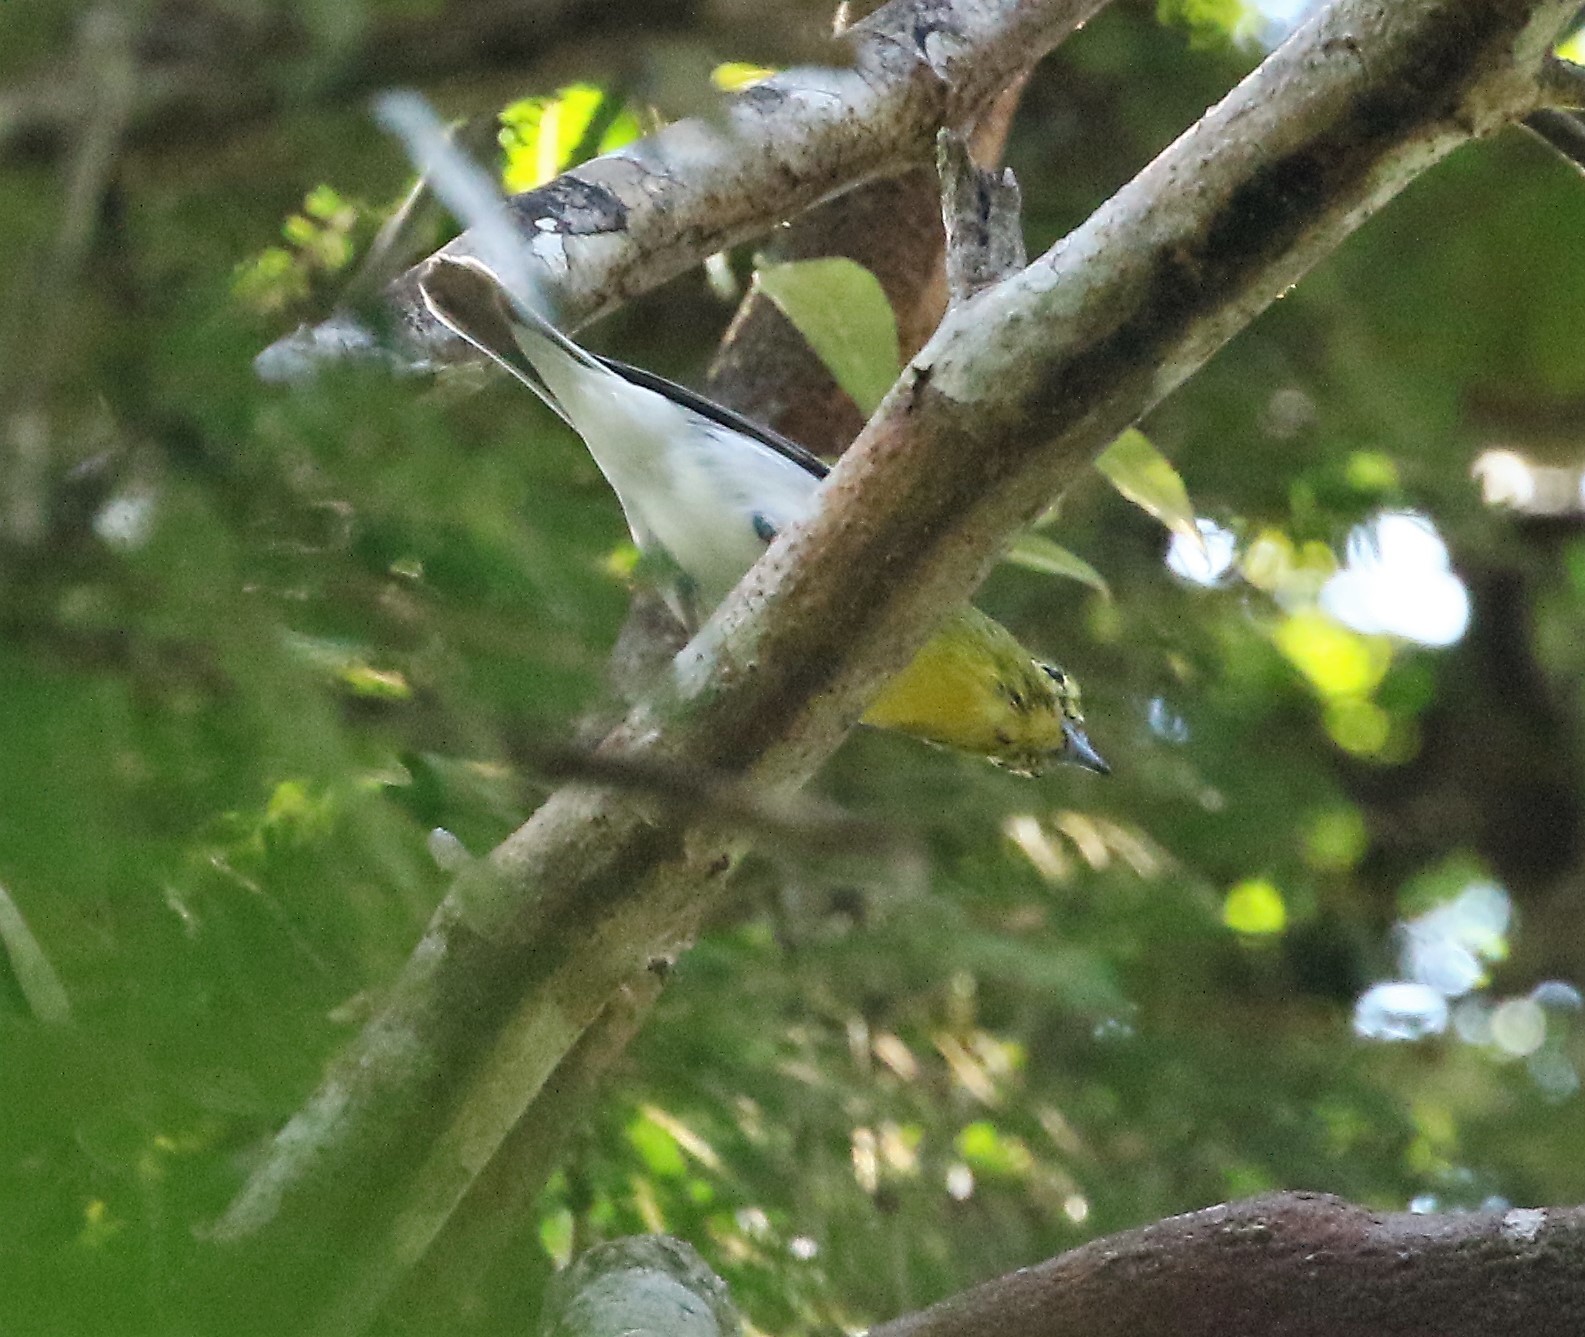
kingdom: Animalia
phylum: Chordata
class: Aves
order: Passeriformes
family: Vireonidae
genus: Vireo
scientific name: Vireo flavifrons
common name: Yellow-throated vireo
